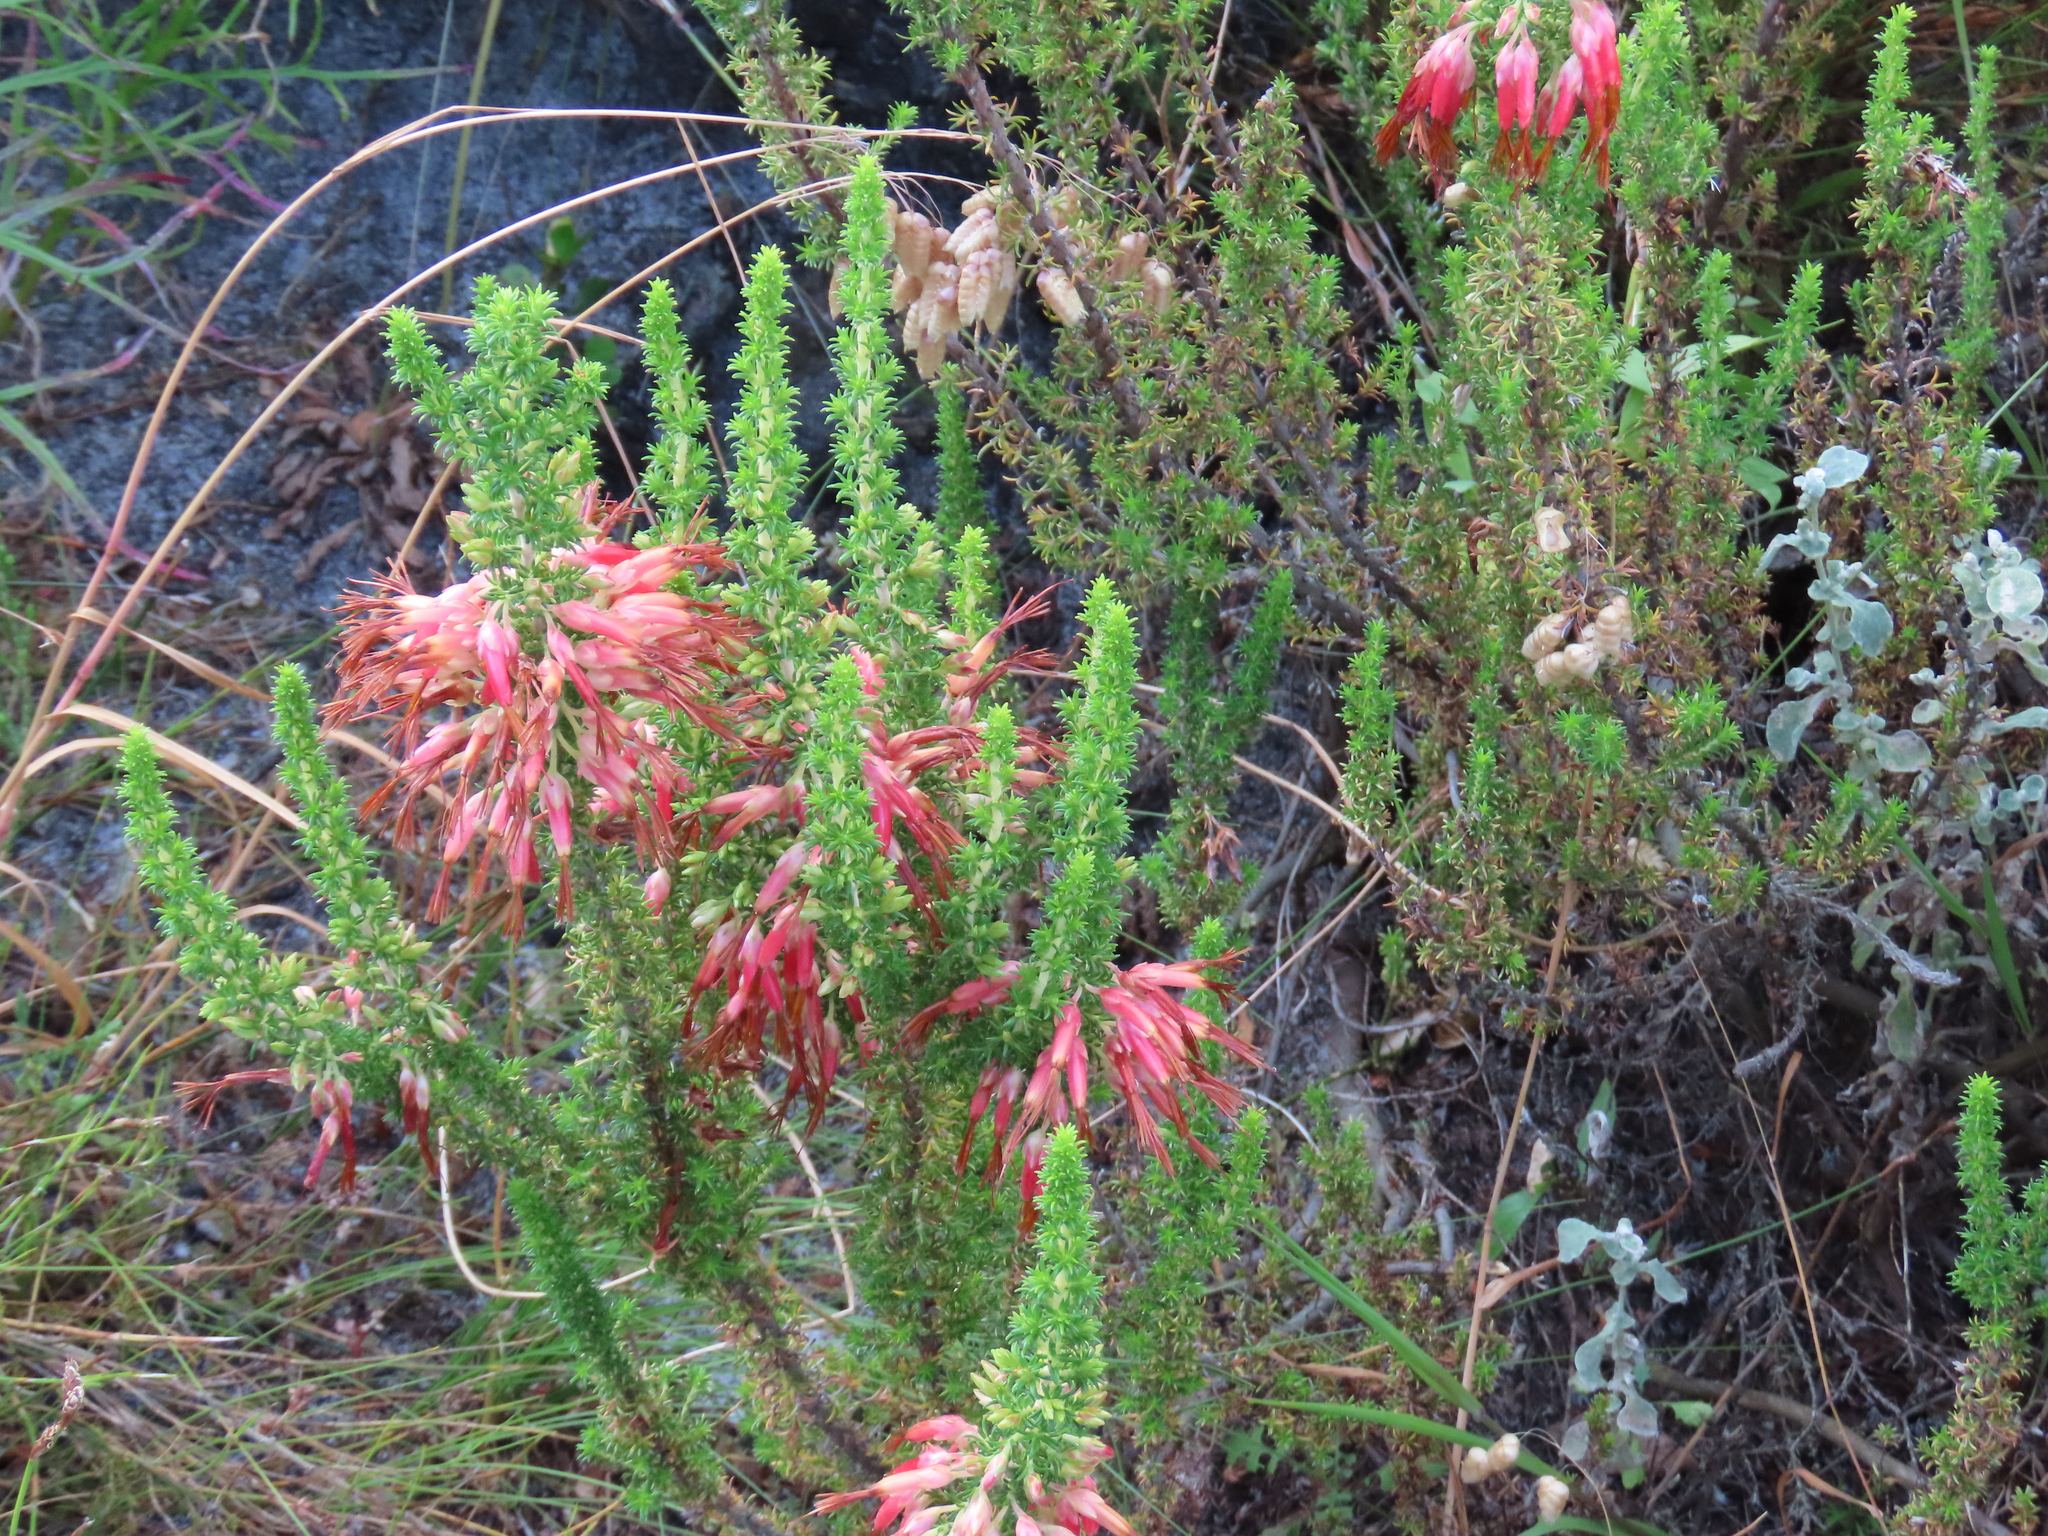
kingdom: Plantae
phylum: Tracheophyta
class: Magnoliopsida
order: Ericales
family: Ericaceae
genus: Erica
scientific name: Erica coccinea
